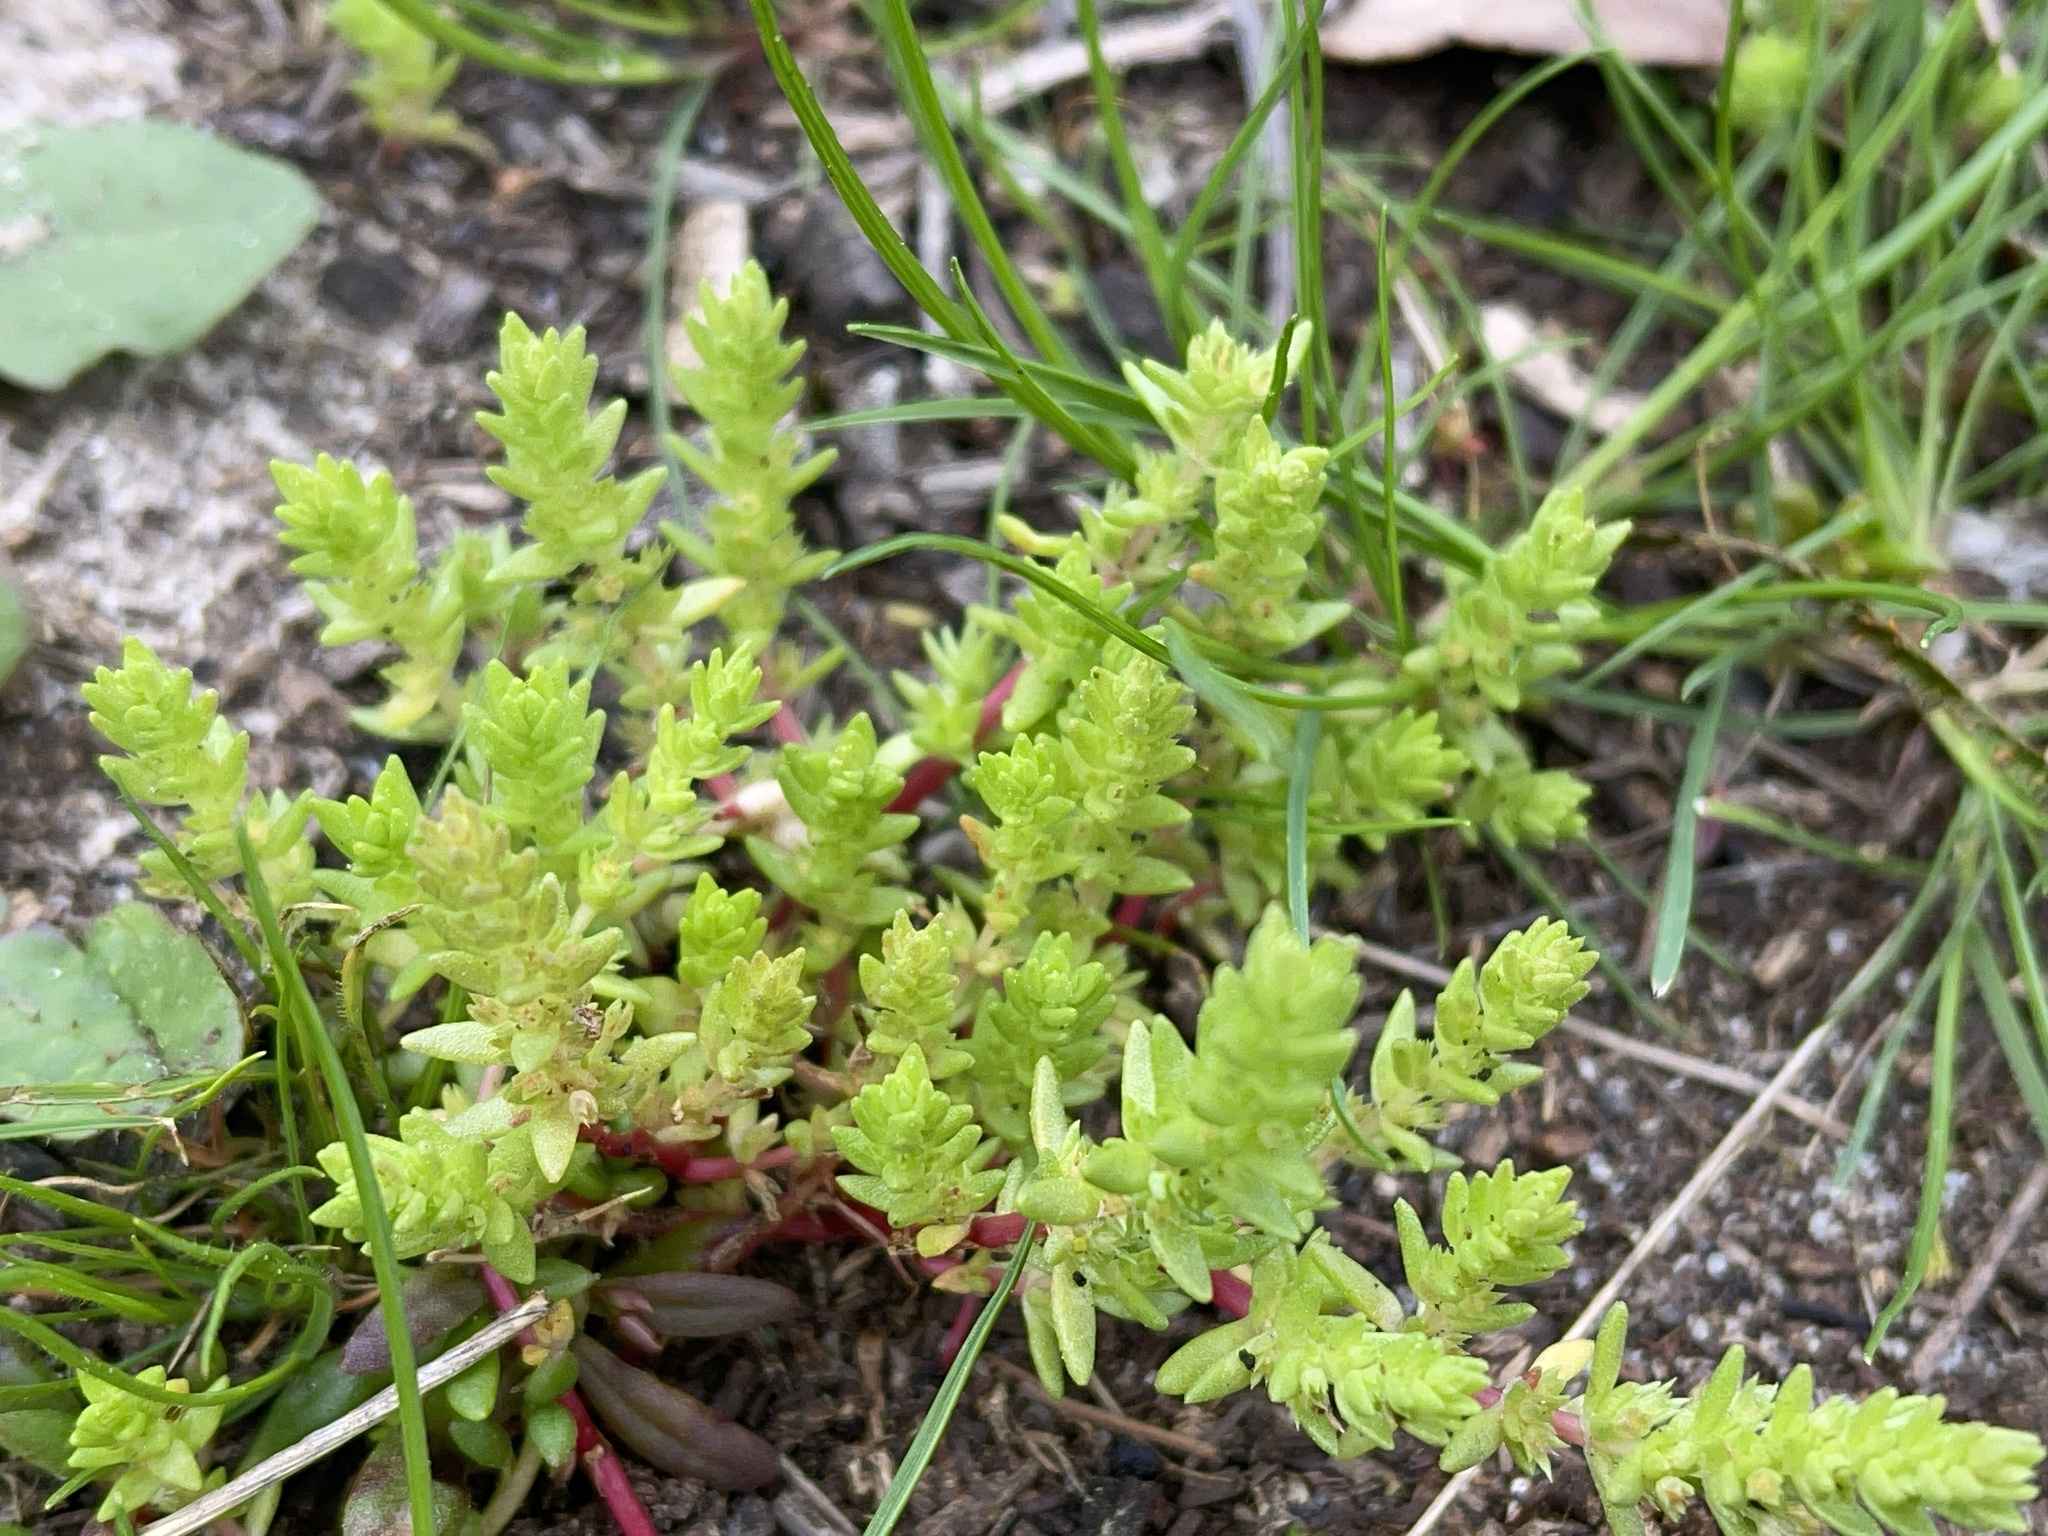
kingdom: Plantae
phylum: Tracheophyta
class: Magnoliopsida
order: Saxifragales
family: Crassulaceae
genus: Crassula
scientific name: Crassula sieberiana
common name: Siberian pygmyweed
